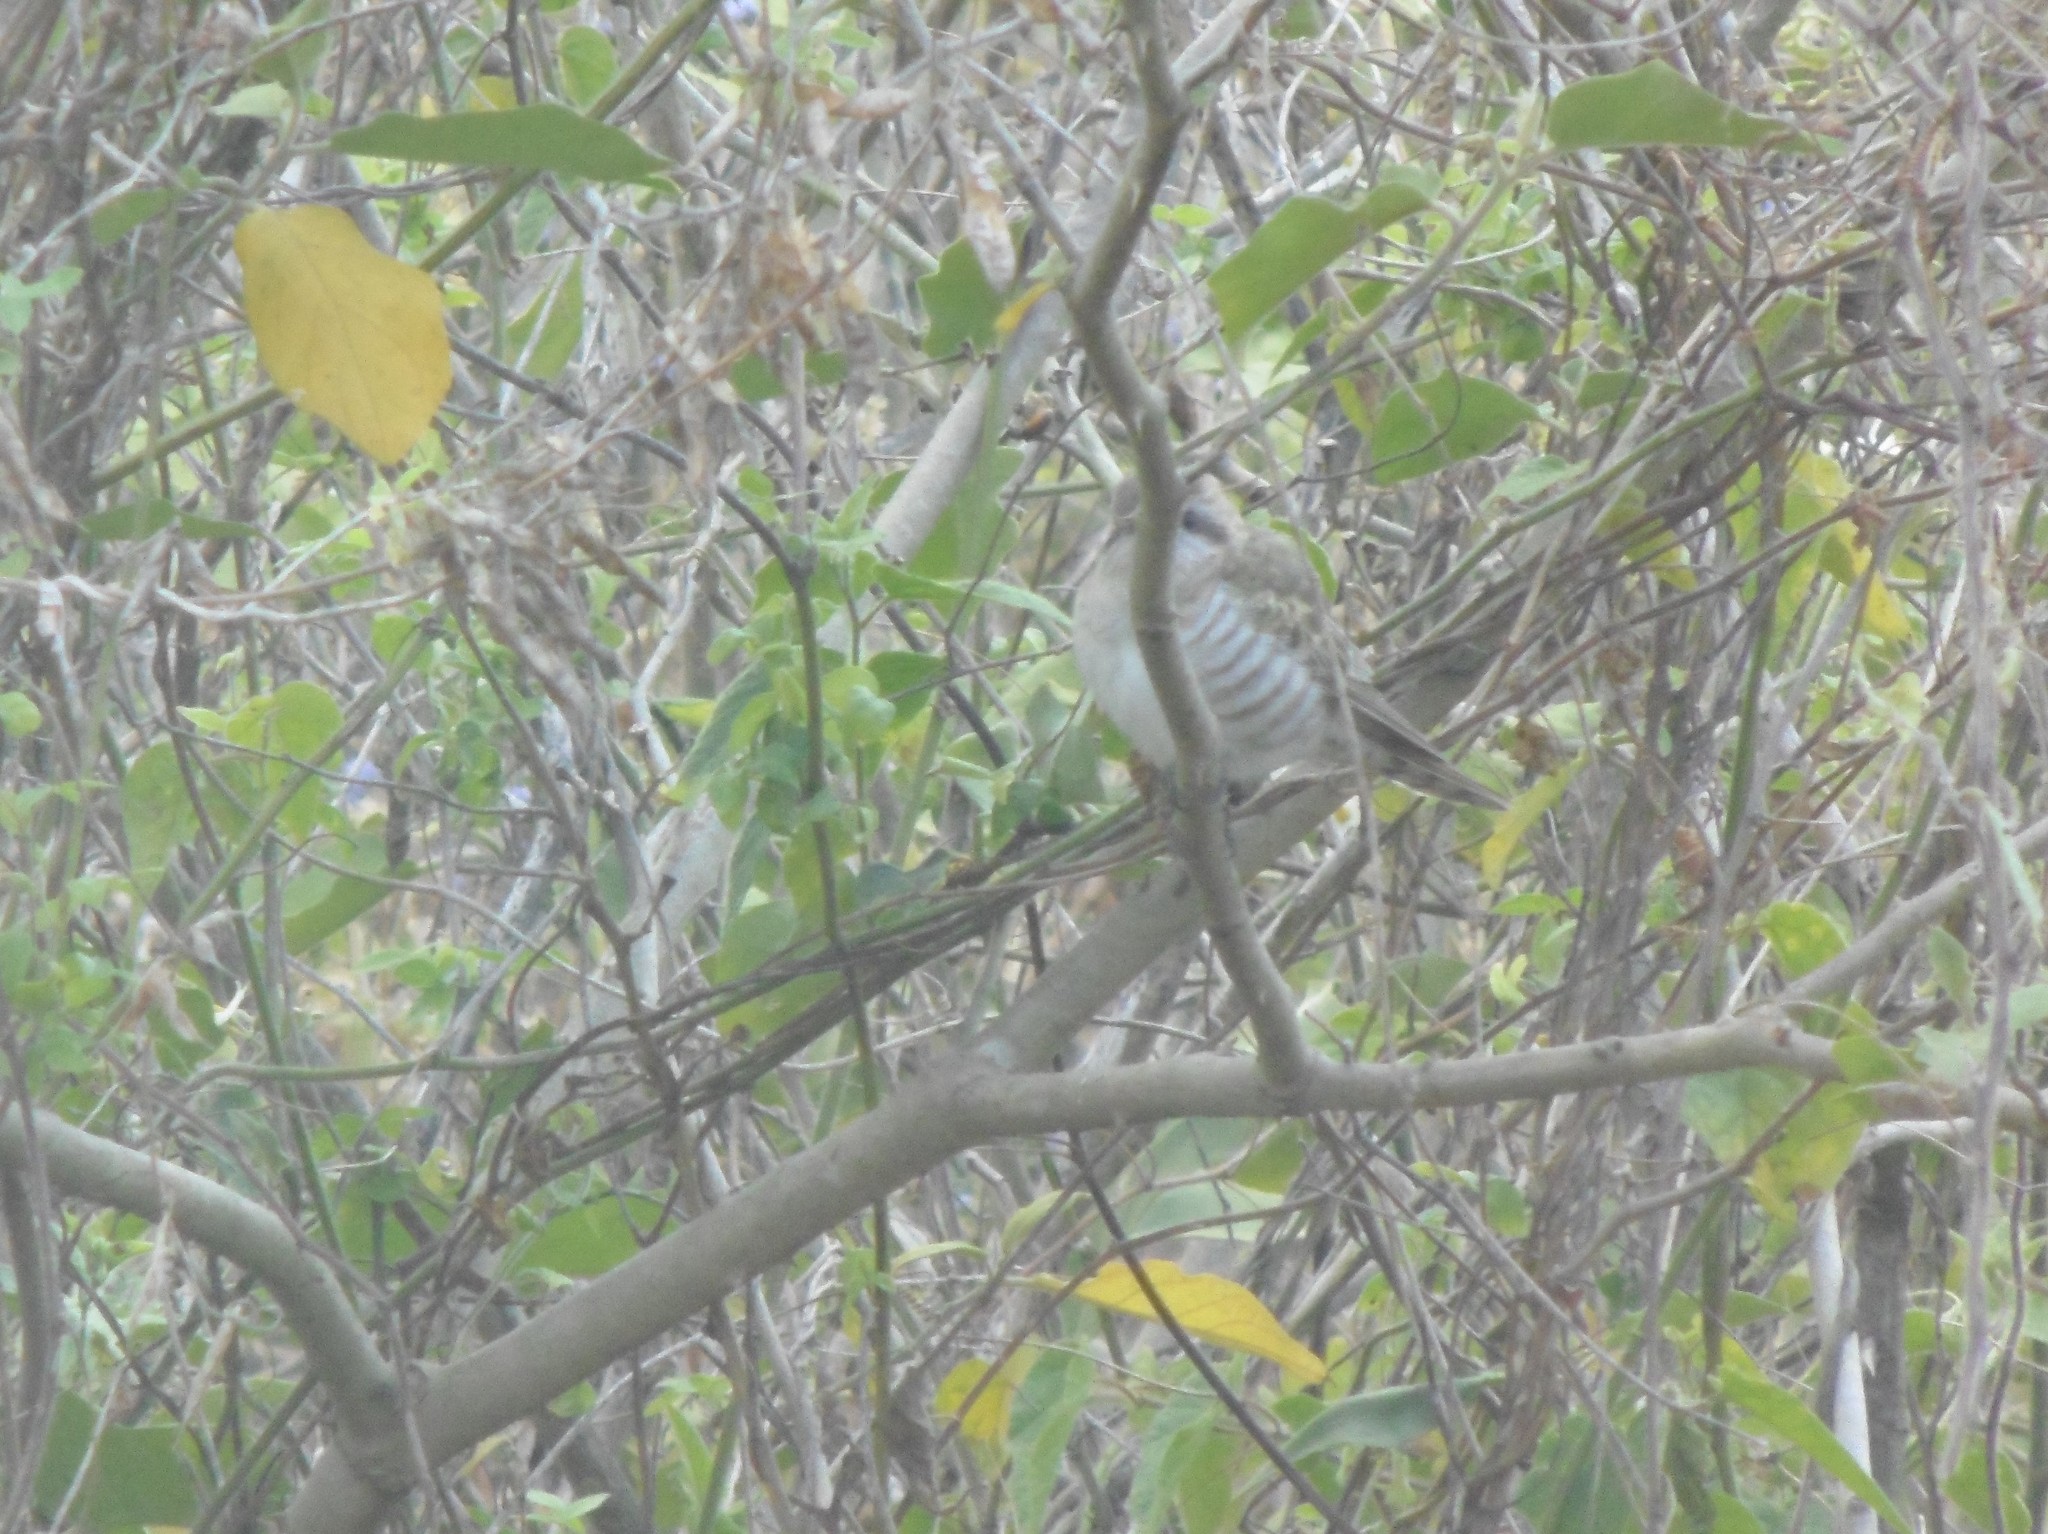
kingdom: Animalia
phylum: Chordata
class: Aves
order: Cuculiformes
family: Cuculidae
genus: Chrysococcyx
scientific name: Chrysococcyx basalis
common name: Horsfield's bronze cuckoo
